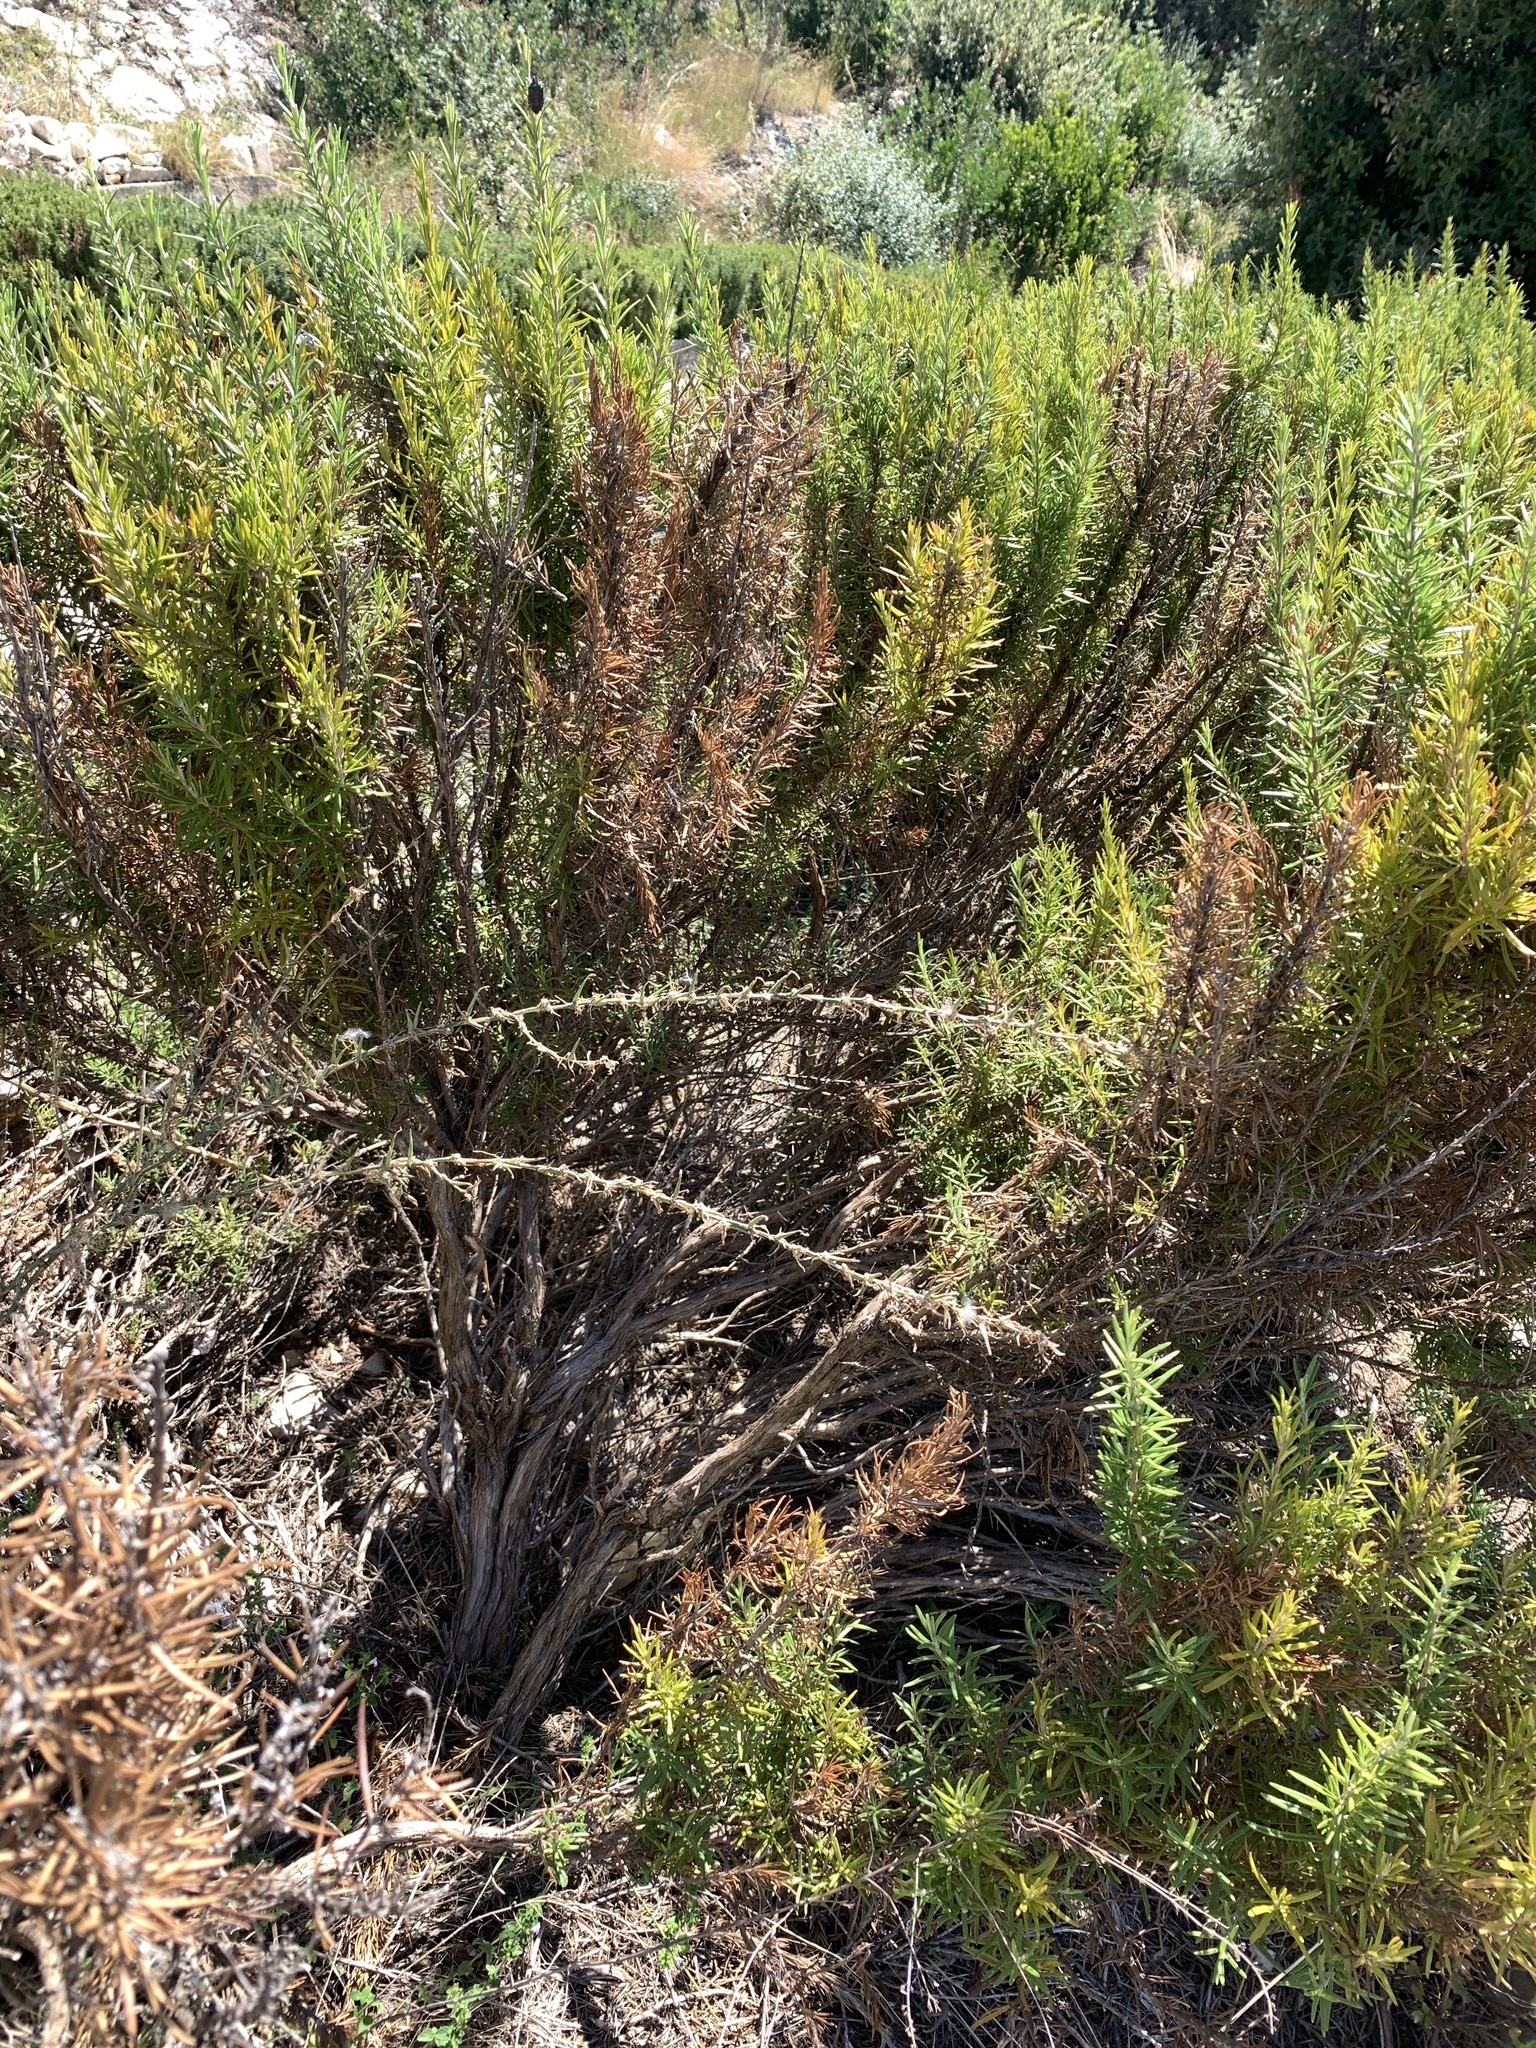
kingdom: Plantae
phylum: Tracheophyta
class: Magnoliopsida
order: Lamiales
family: Lamiaceae
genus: Salvia
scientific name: Salvia rosmarinus
